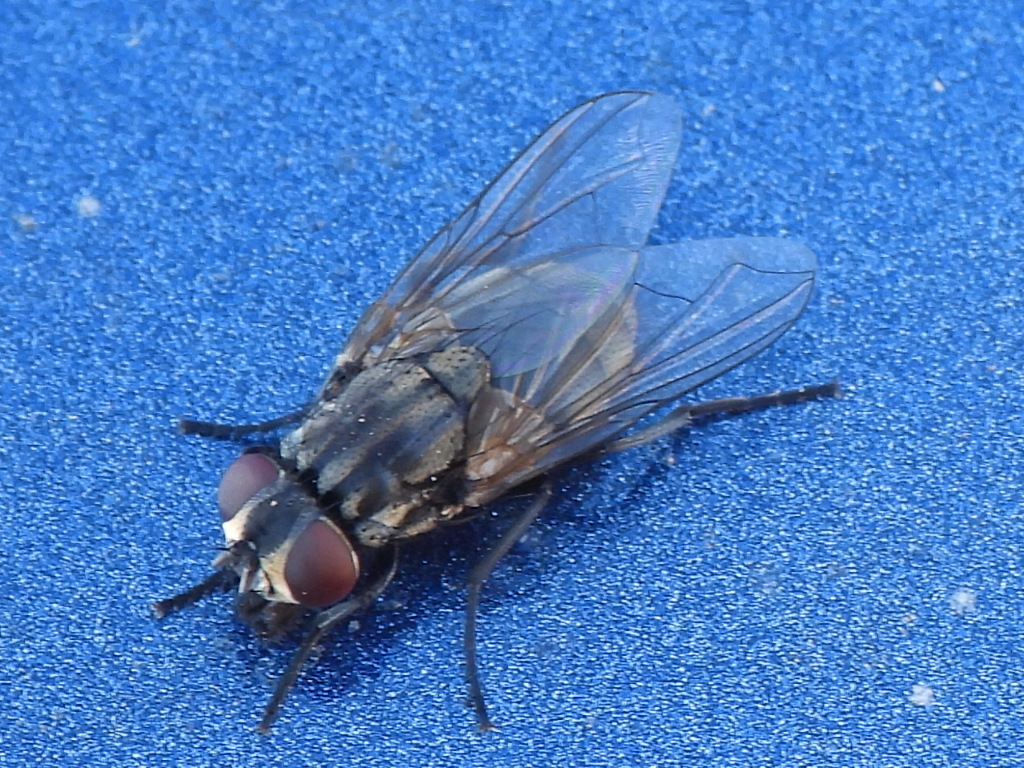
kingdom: Animalia
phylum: Arthropoda
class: Insecta
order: Diptera
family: Muscidae
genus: Musca
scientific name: Musca domestica
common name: House fly
